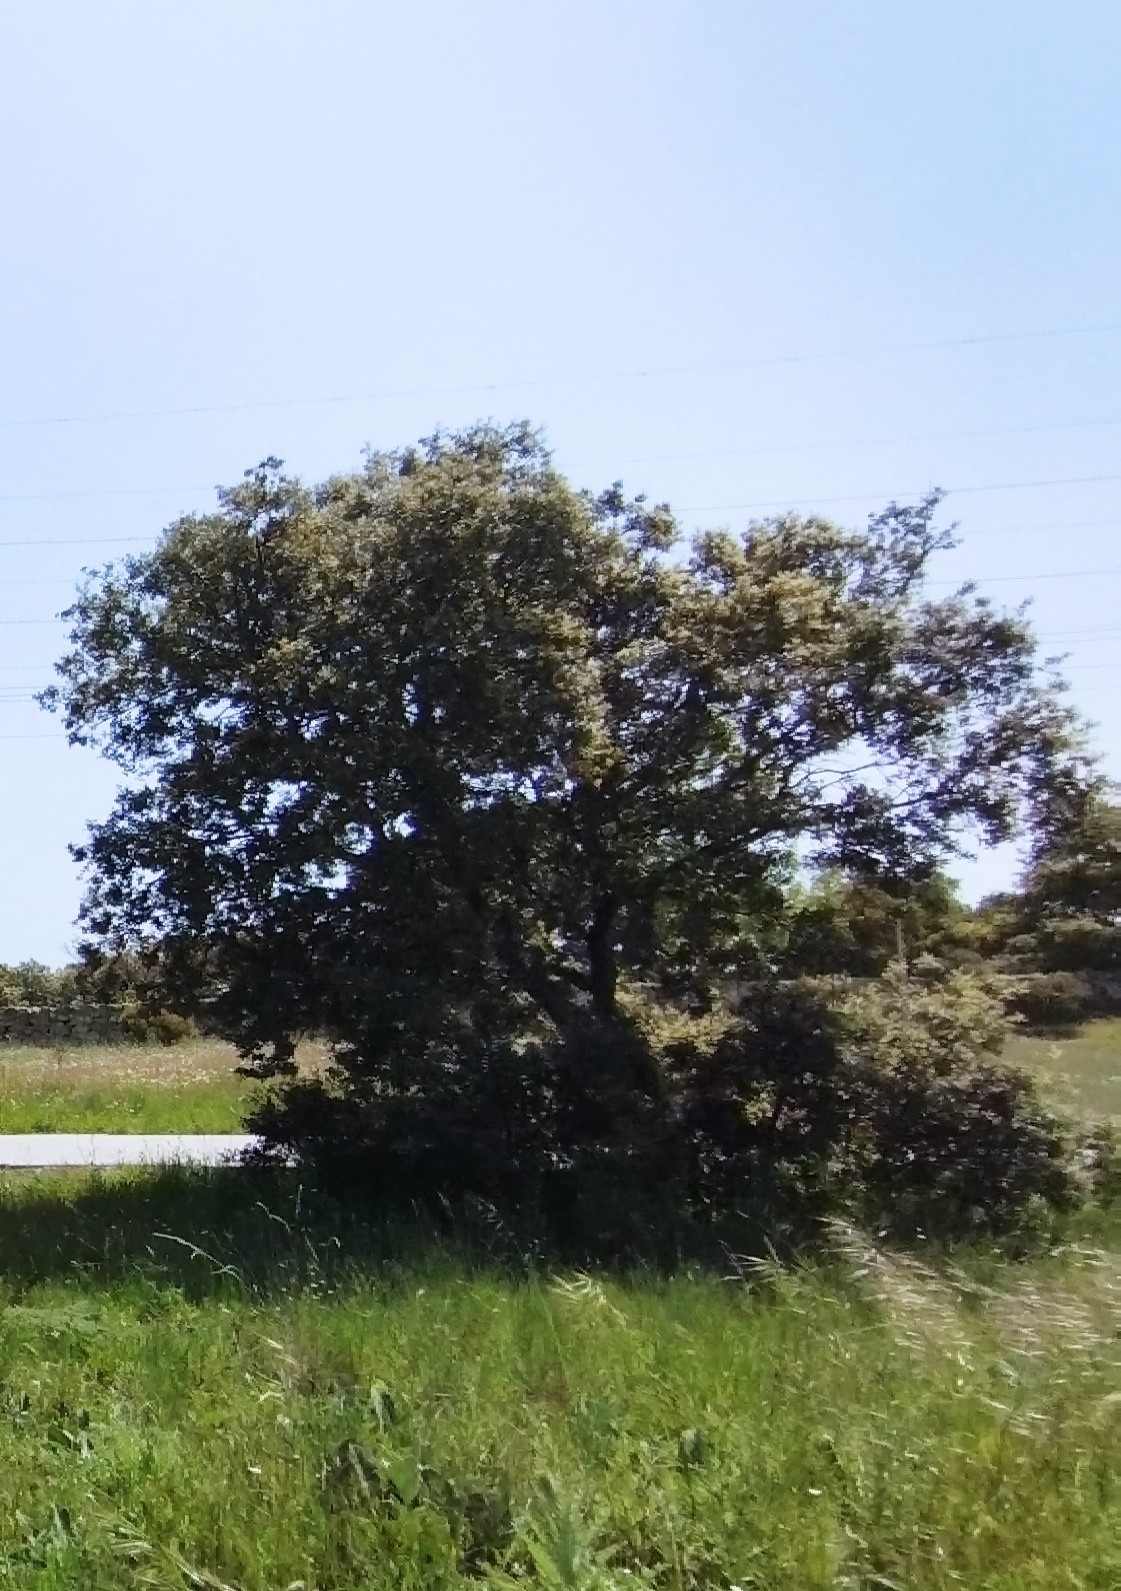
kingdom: Plantae
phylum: Tracheophyta
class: Magnoliopsida
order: Fagales
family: Fagaceae
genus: Quercus
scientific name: Quercus rotundifolia
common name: Holm oak
